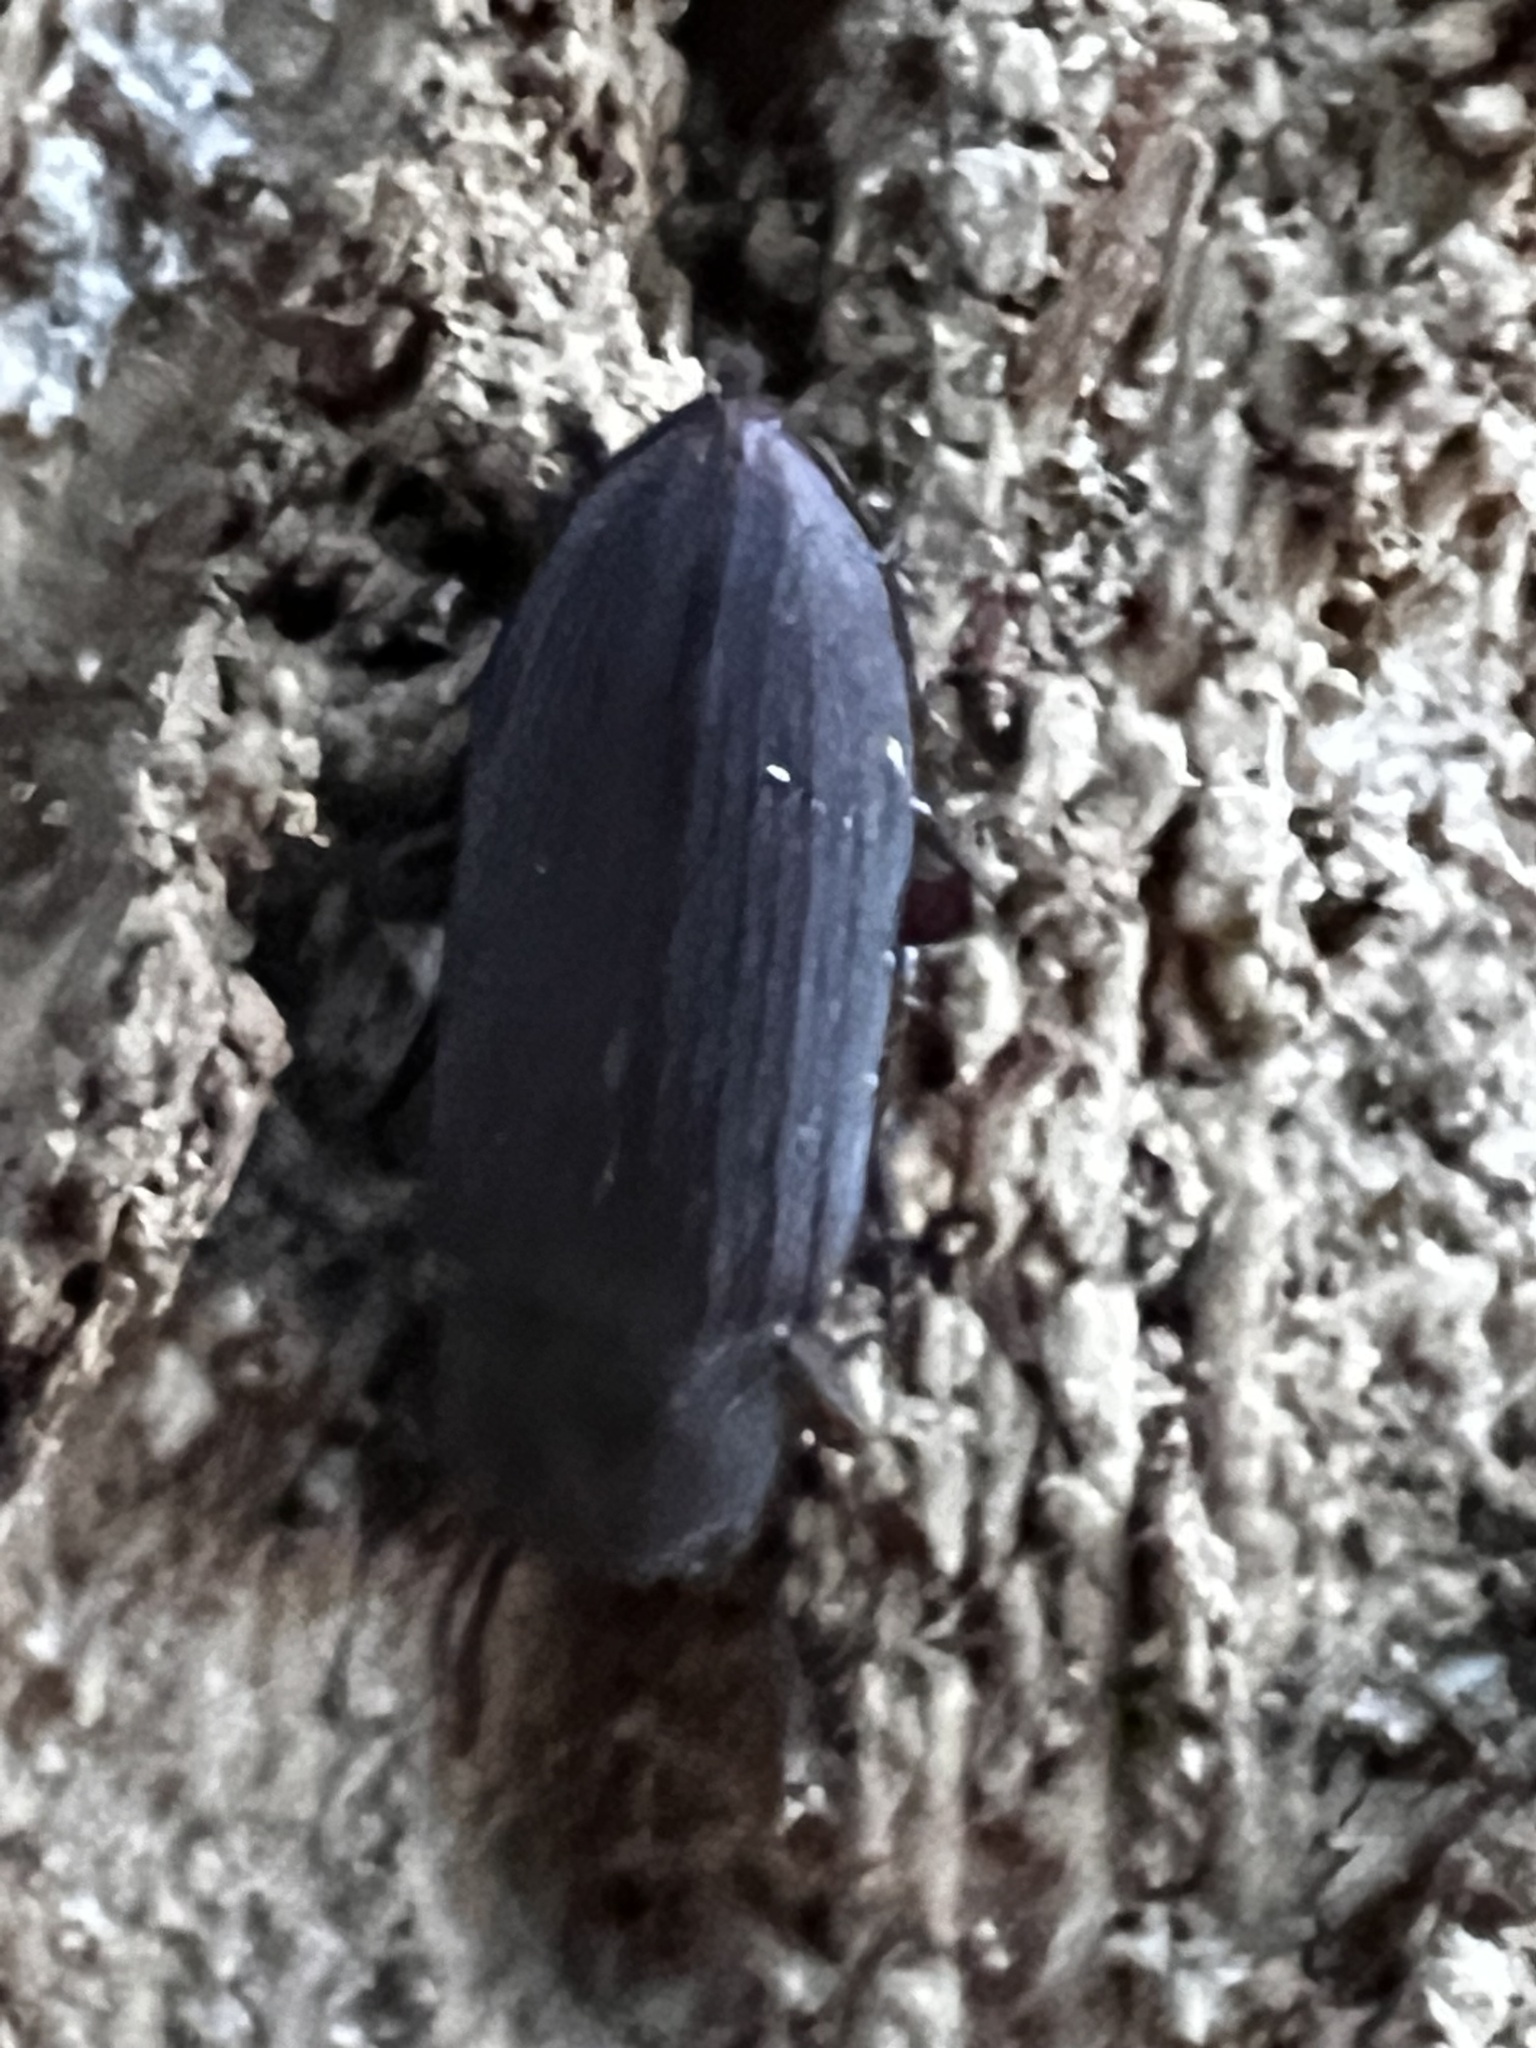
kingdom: Animalia
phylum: Arthropoda
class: Insecta
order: Coleoptera
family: Tenebrionidae
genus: Idiobates
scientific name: Idiobates castaneus
